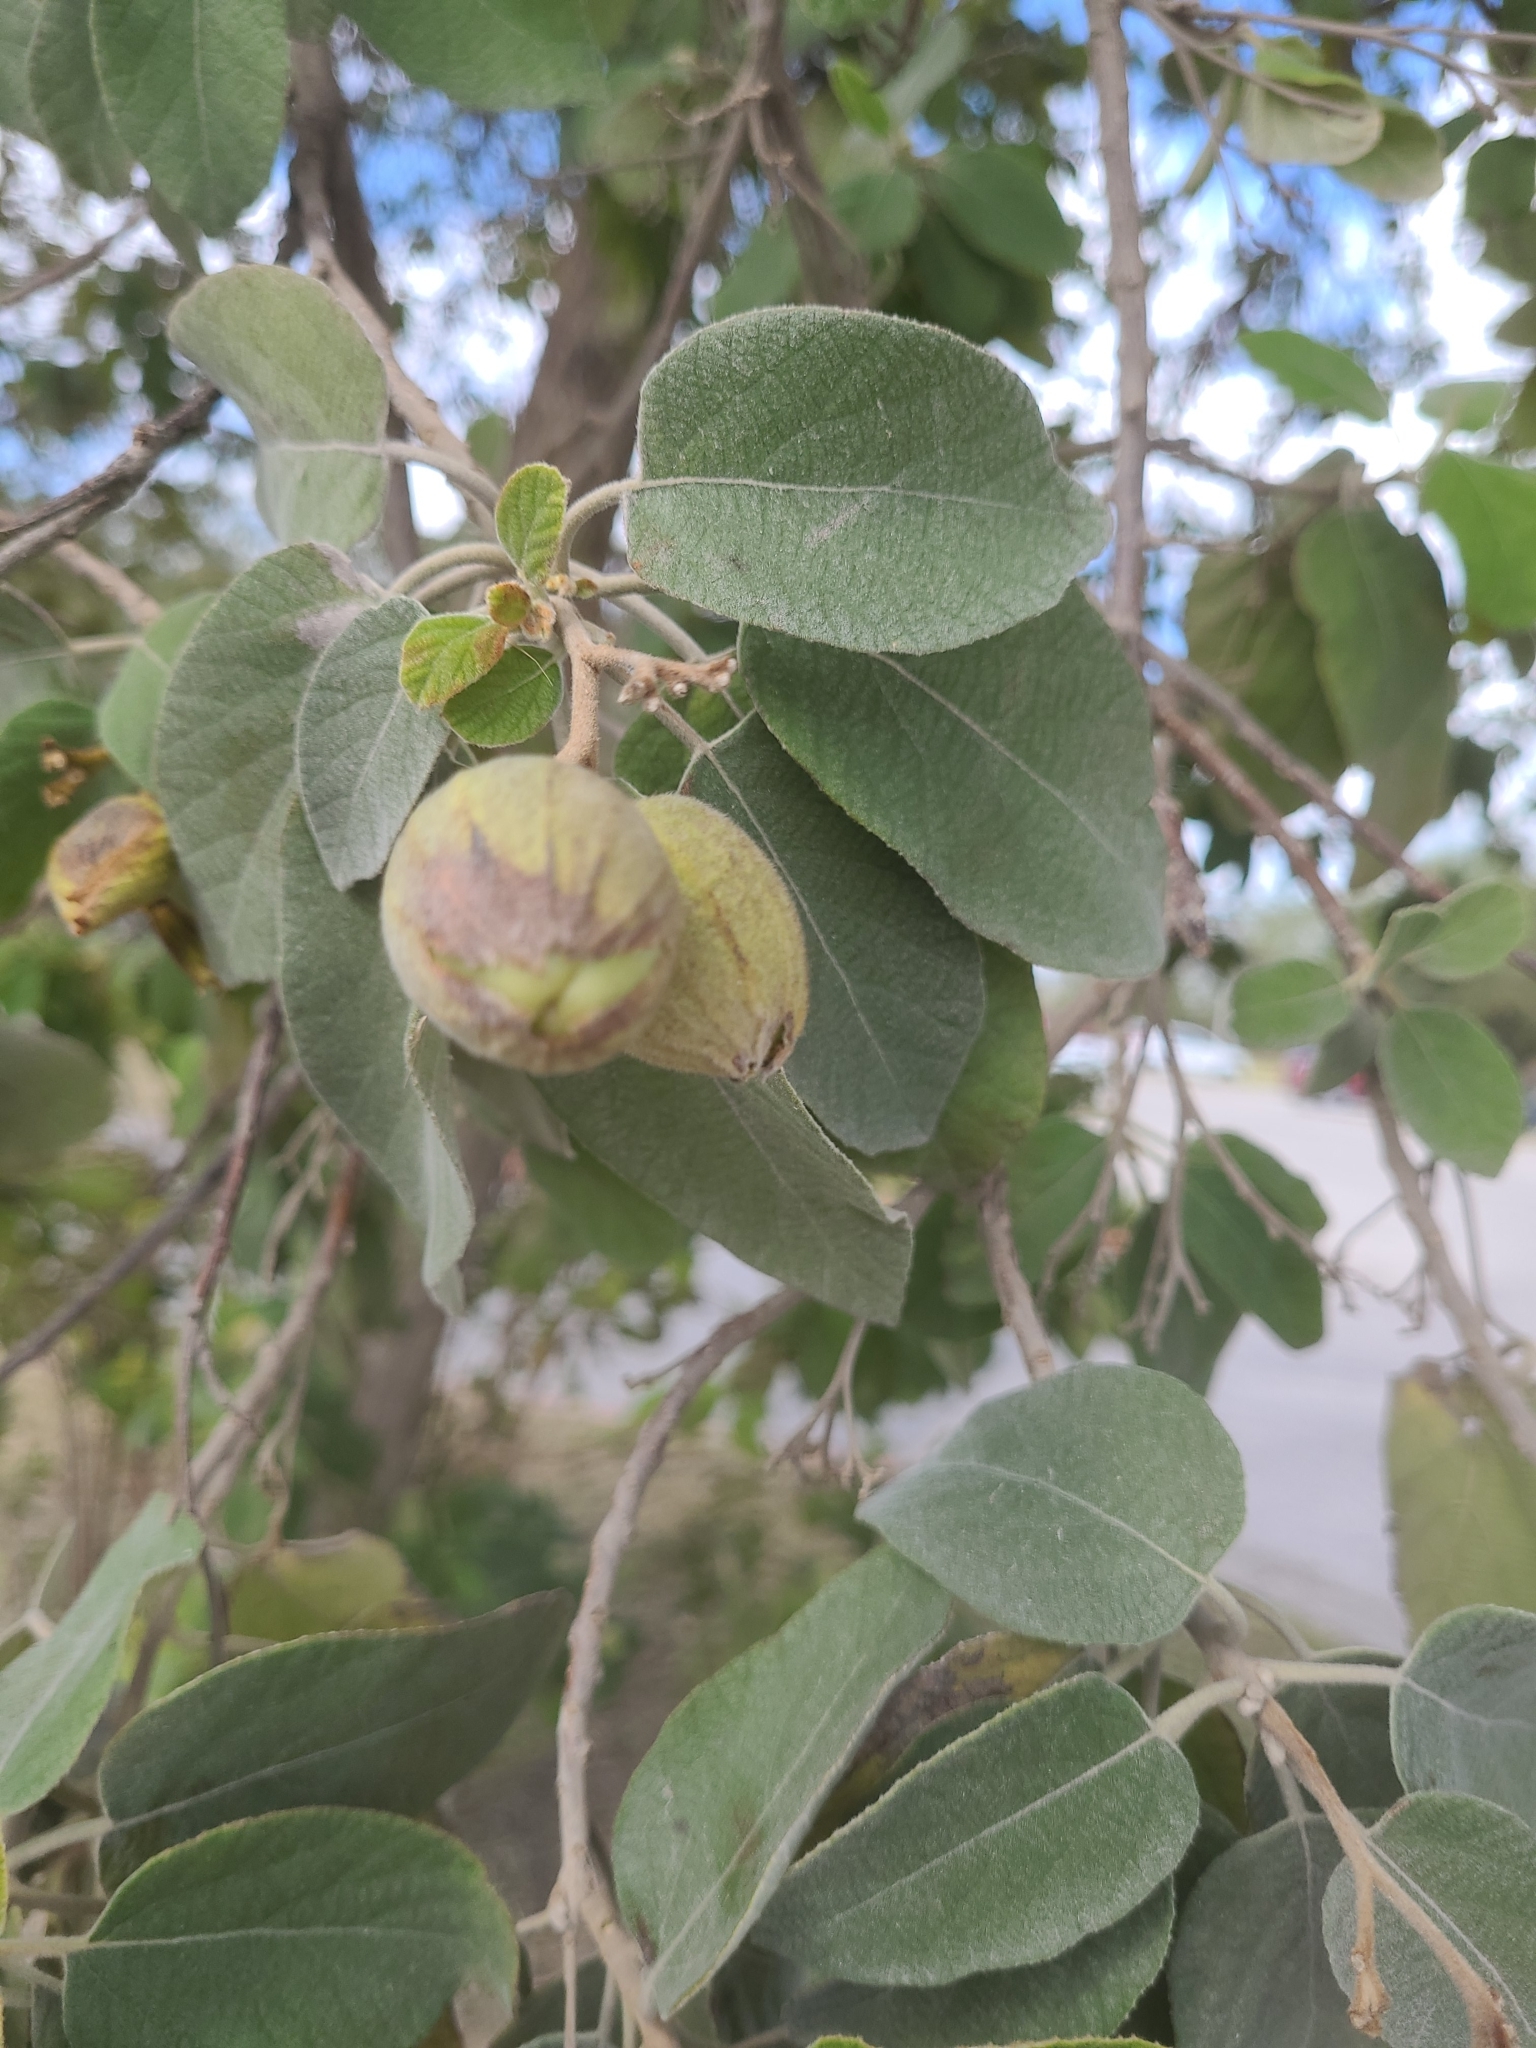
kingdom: Plantae
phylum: Tracheophyta
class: Magnoliopsida
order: Boraginales
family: Cordiaceae
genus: Cordia
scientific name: Cordia boissieri
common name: Mexican-olive
